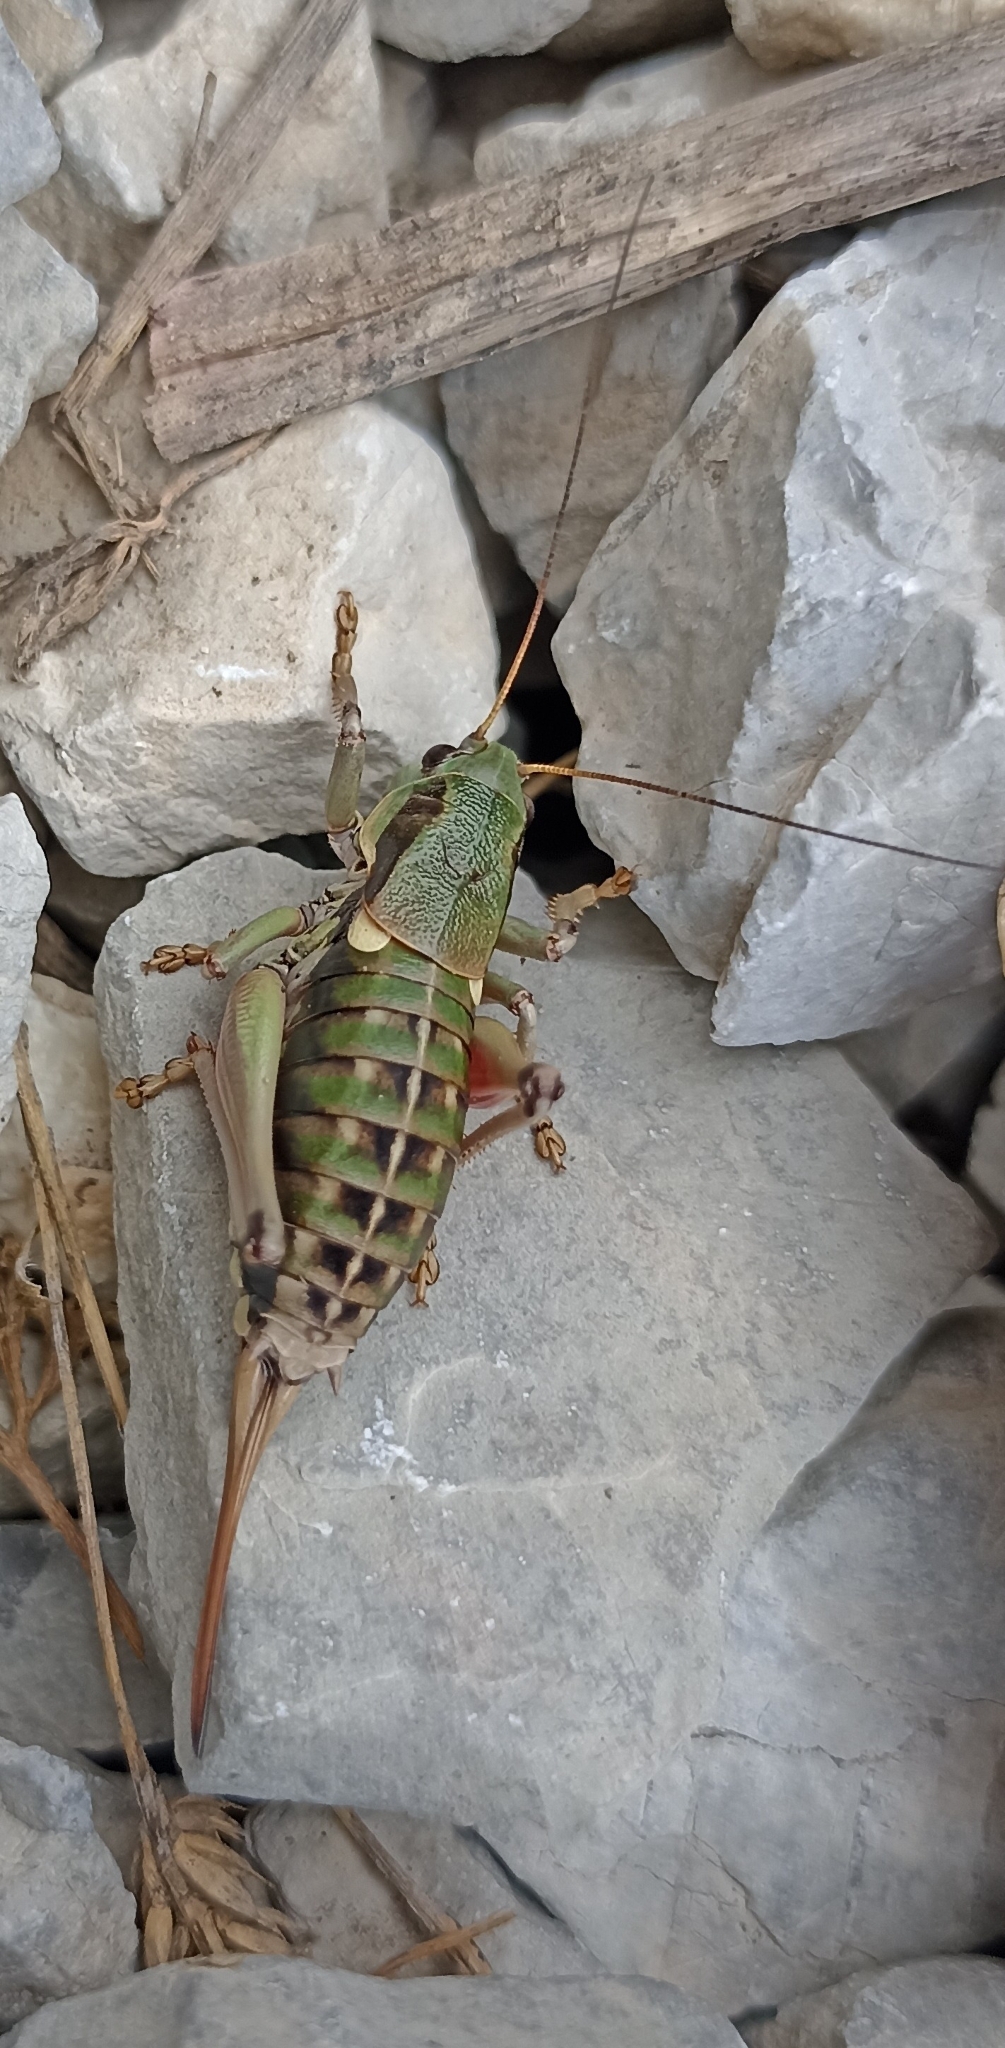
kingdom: Animalia
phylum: Arthropoda
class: Insecta
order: Orthoptera
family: Tettigoniidae
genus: Anonconotus
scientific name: Anonconotus ghilianii
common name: Ghiliani's alpine bush-cricket
